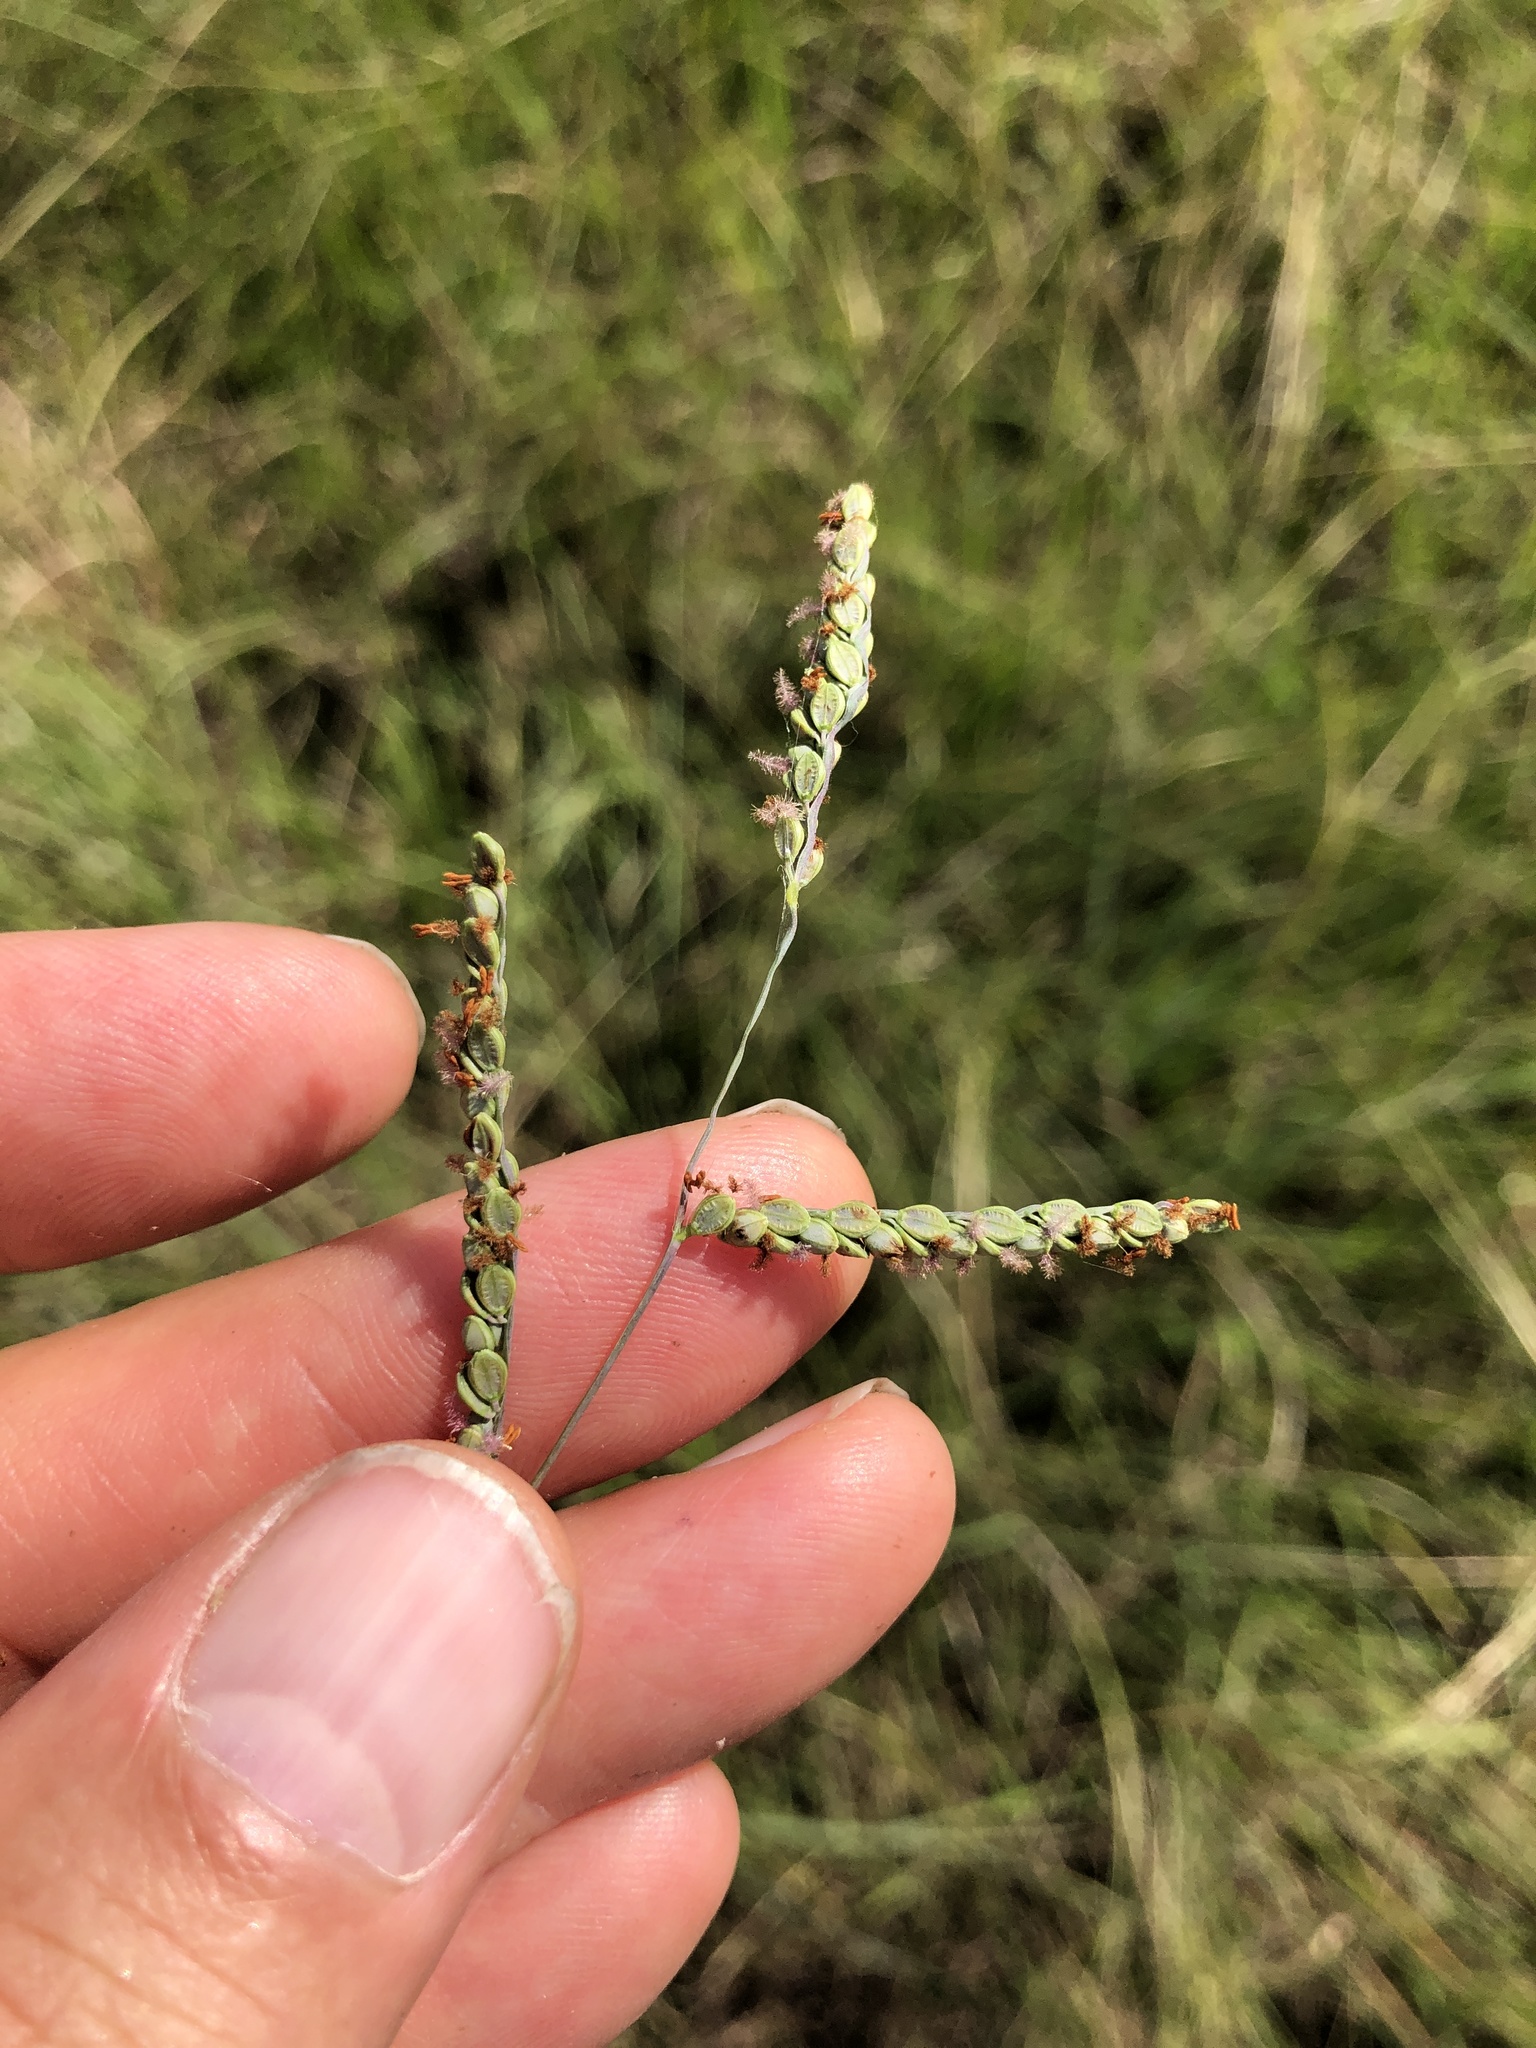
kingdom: Plantae
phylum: Tracheophyta
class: Liliopsida
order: Poales
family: Poaceae
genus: Paspalum
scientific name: Paspalum plicatulum
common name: Top paspalum
